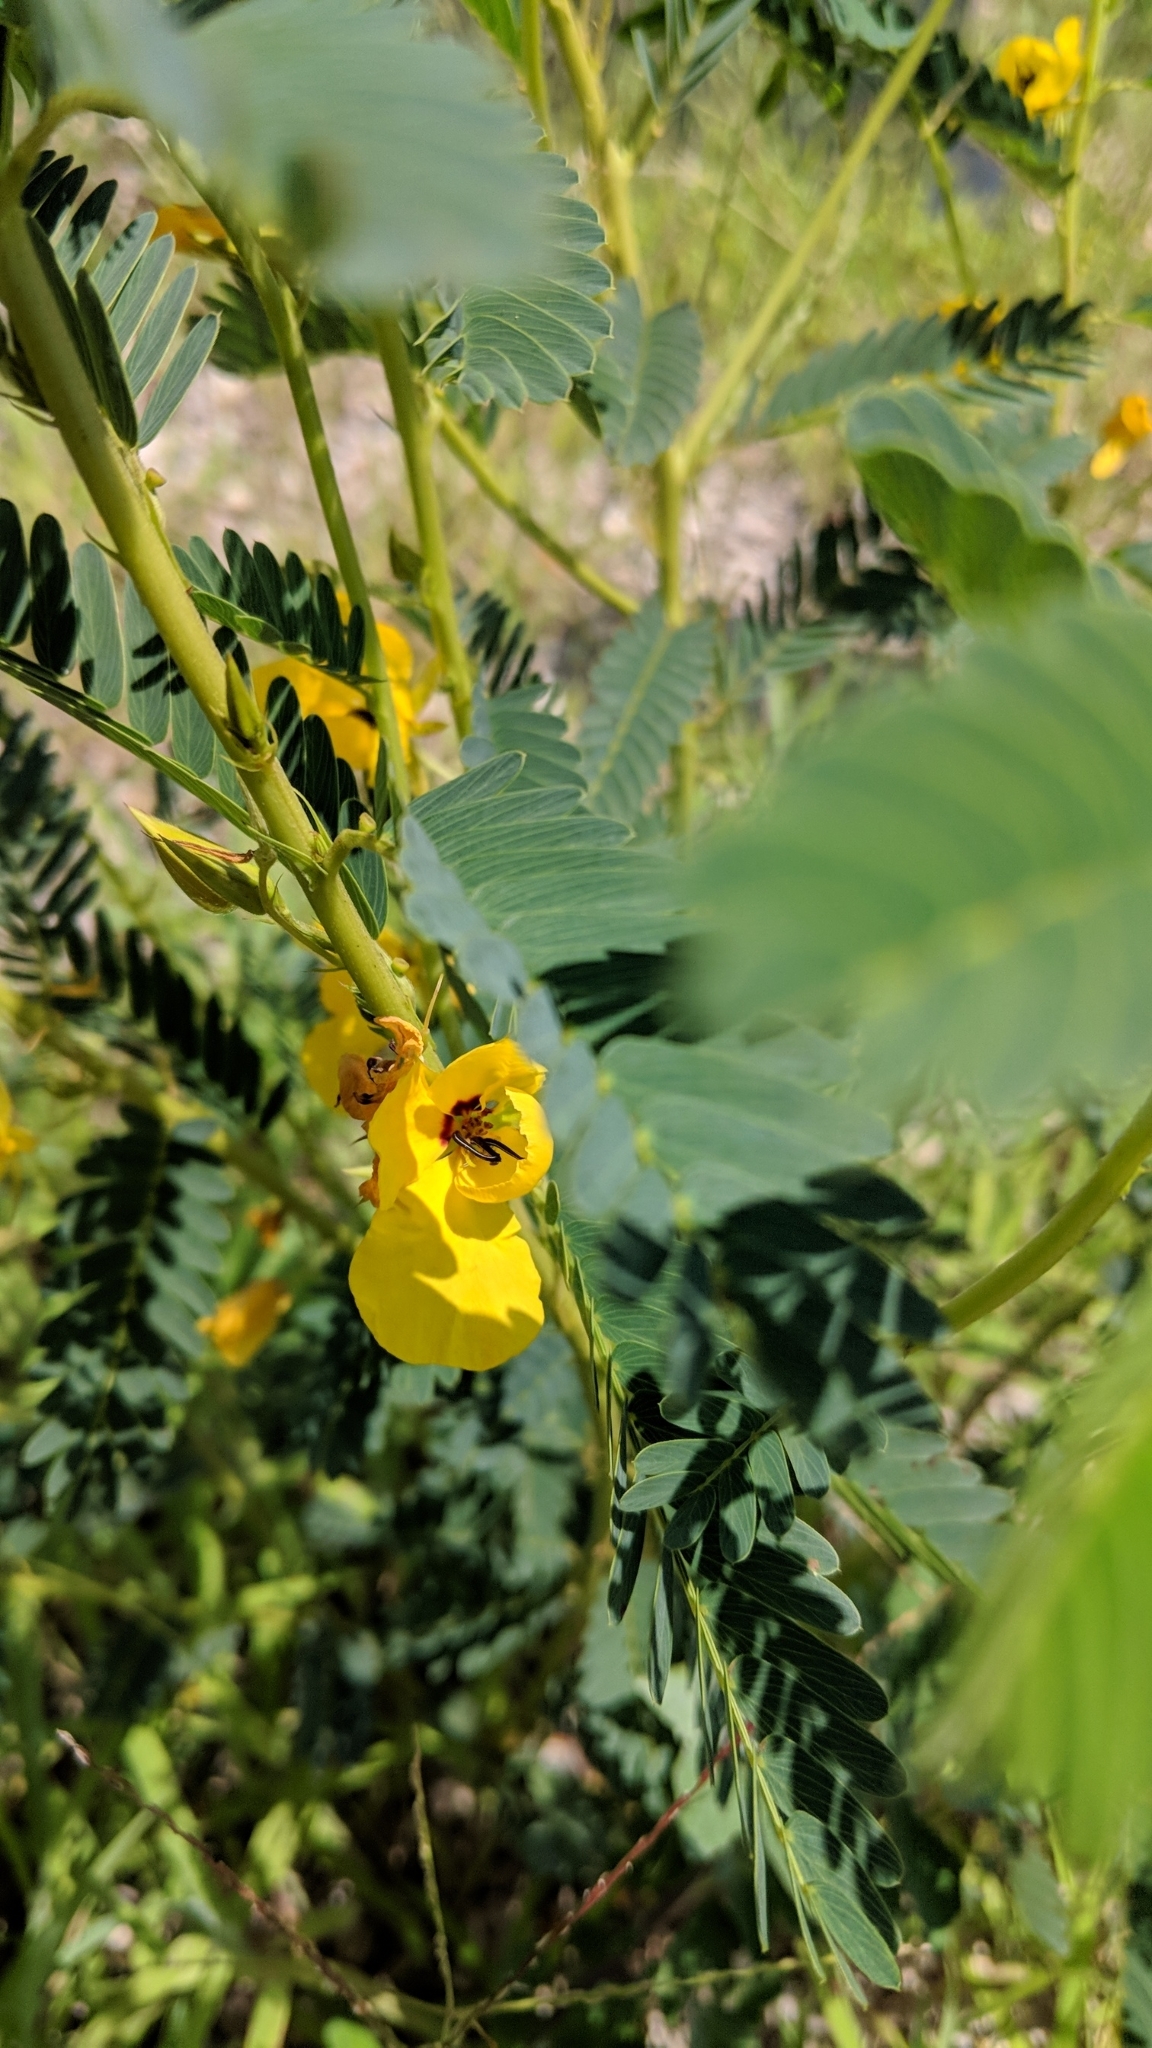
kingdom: Plantae
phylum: Tracheophyta
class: Magnoliopsida
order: Fabales
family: Fabaceae
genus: Chamaecrista
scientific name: Chamaecrista fasciculata
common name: Golden cassia
